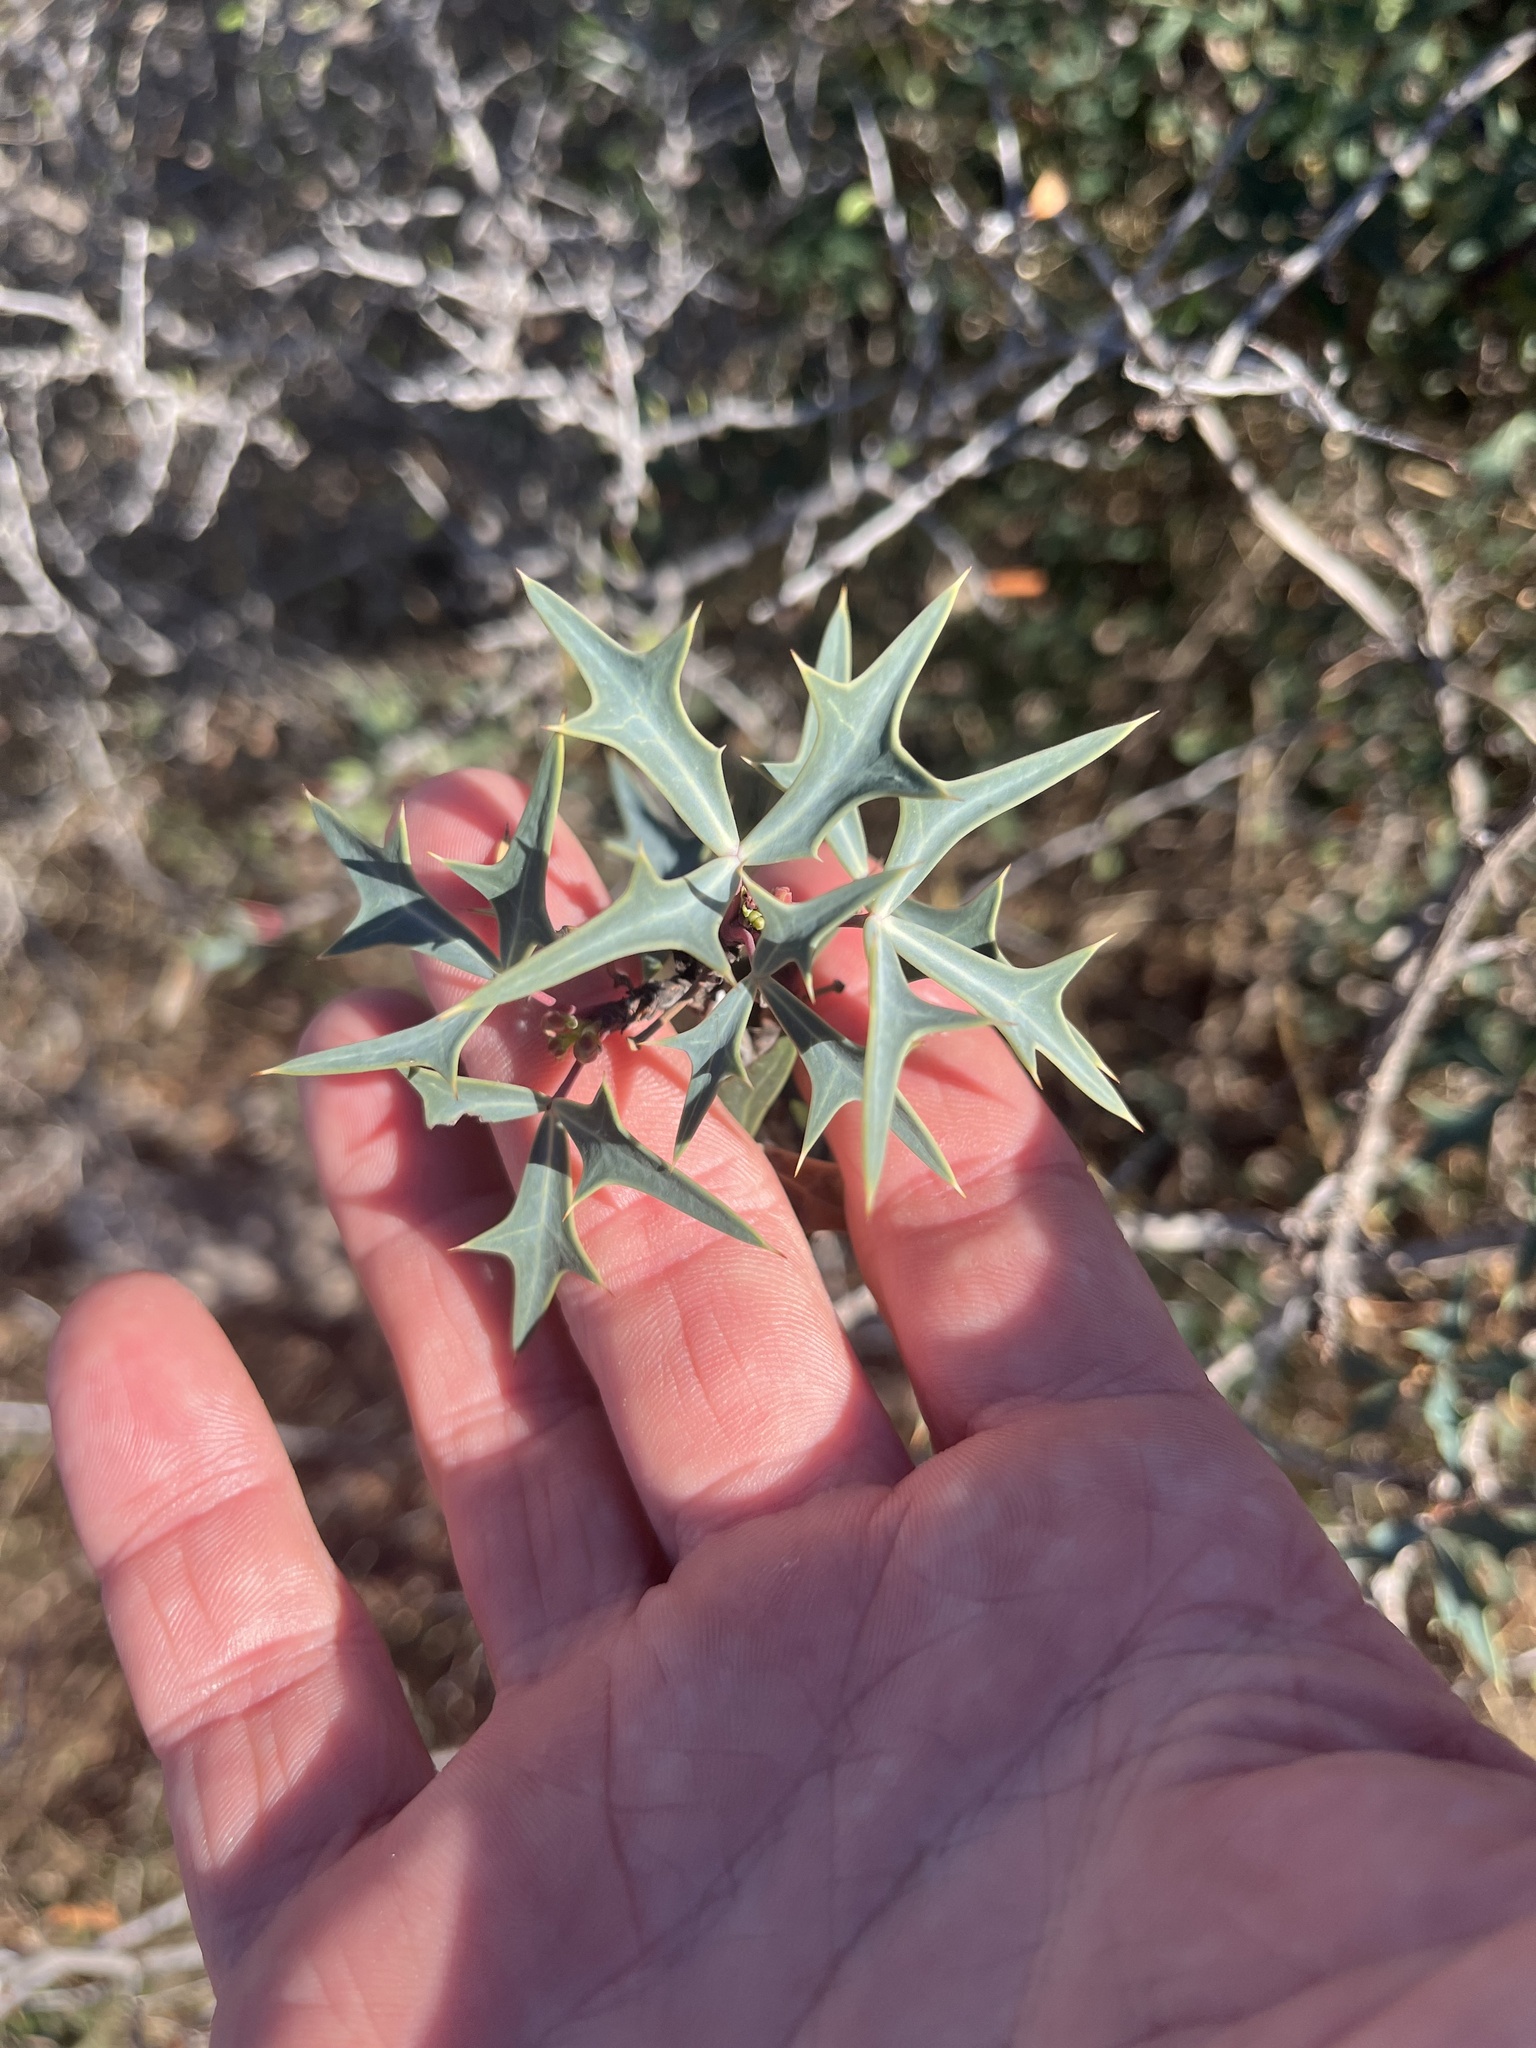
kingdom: Plantae
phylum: Tracheophyta
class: Magnoliopsida
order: Ranunculales
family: Berberidaceae
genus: Alloberberis
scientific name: Alloberberis trifoliolata
